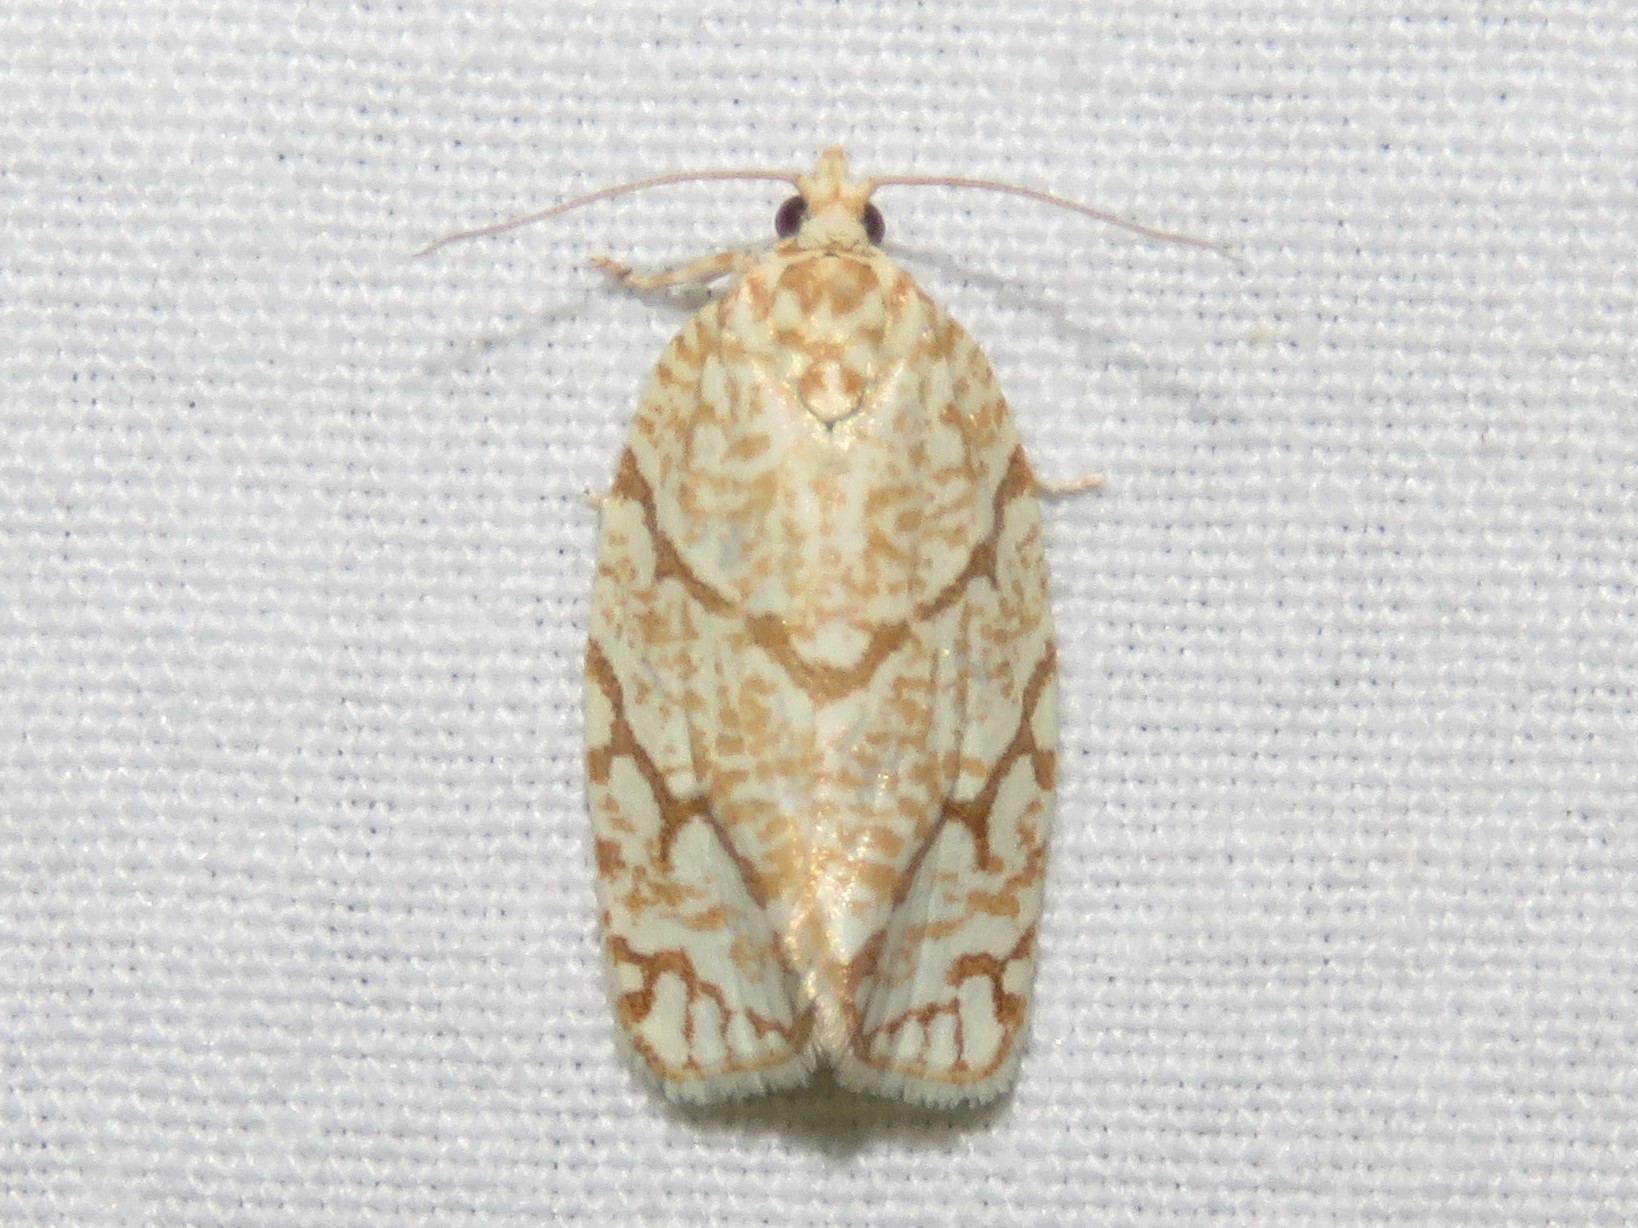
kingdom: Animalia
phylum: Arthropoda
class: Insecta
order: Lepidoptera
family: Tortricidae
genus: Argyrotaenia
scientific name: Argyrotaenia quercifoliana
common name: Yellow-winged oak leafroller moth
